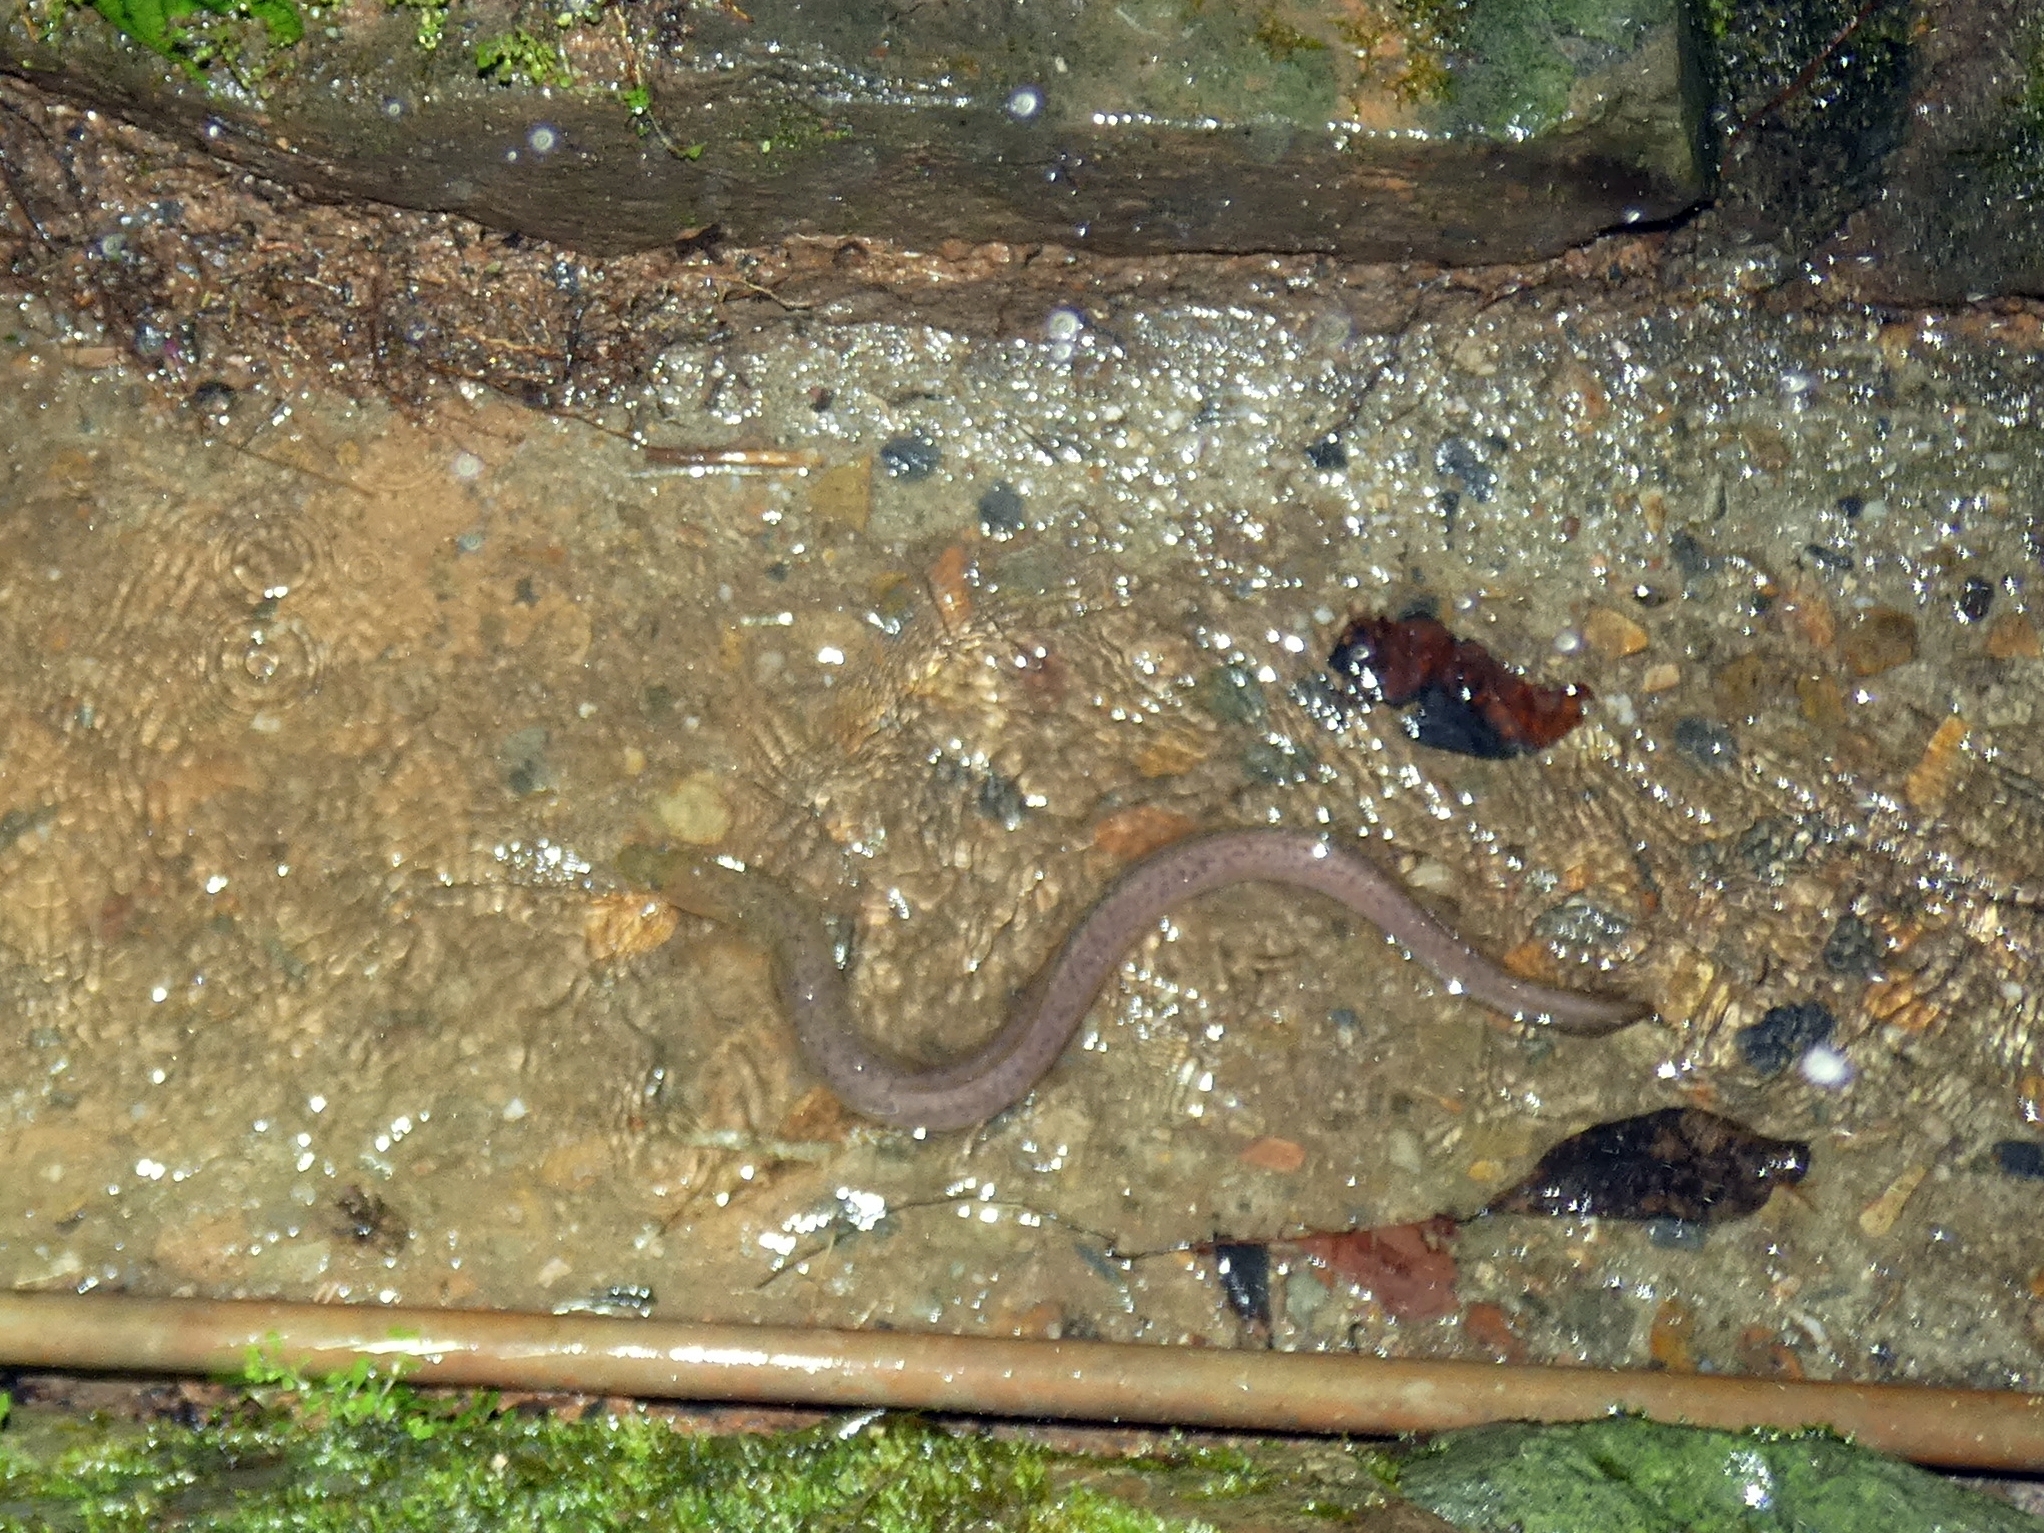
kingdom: Animalia
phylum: Chordata
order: Anguilliformes
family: Anguillidae
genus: Anguilla
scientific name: Anguilla reinhardtii
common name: Longfin eel
